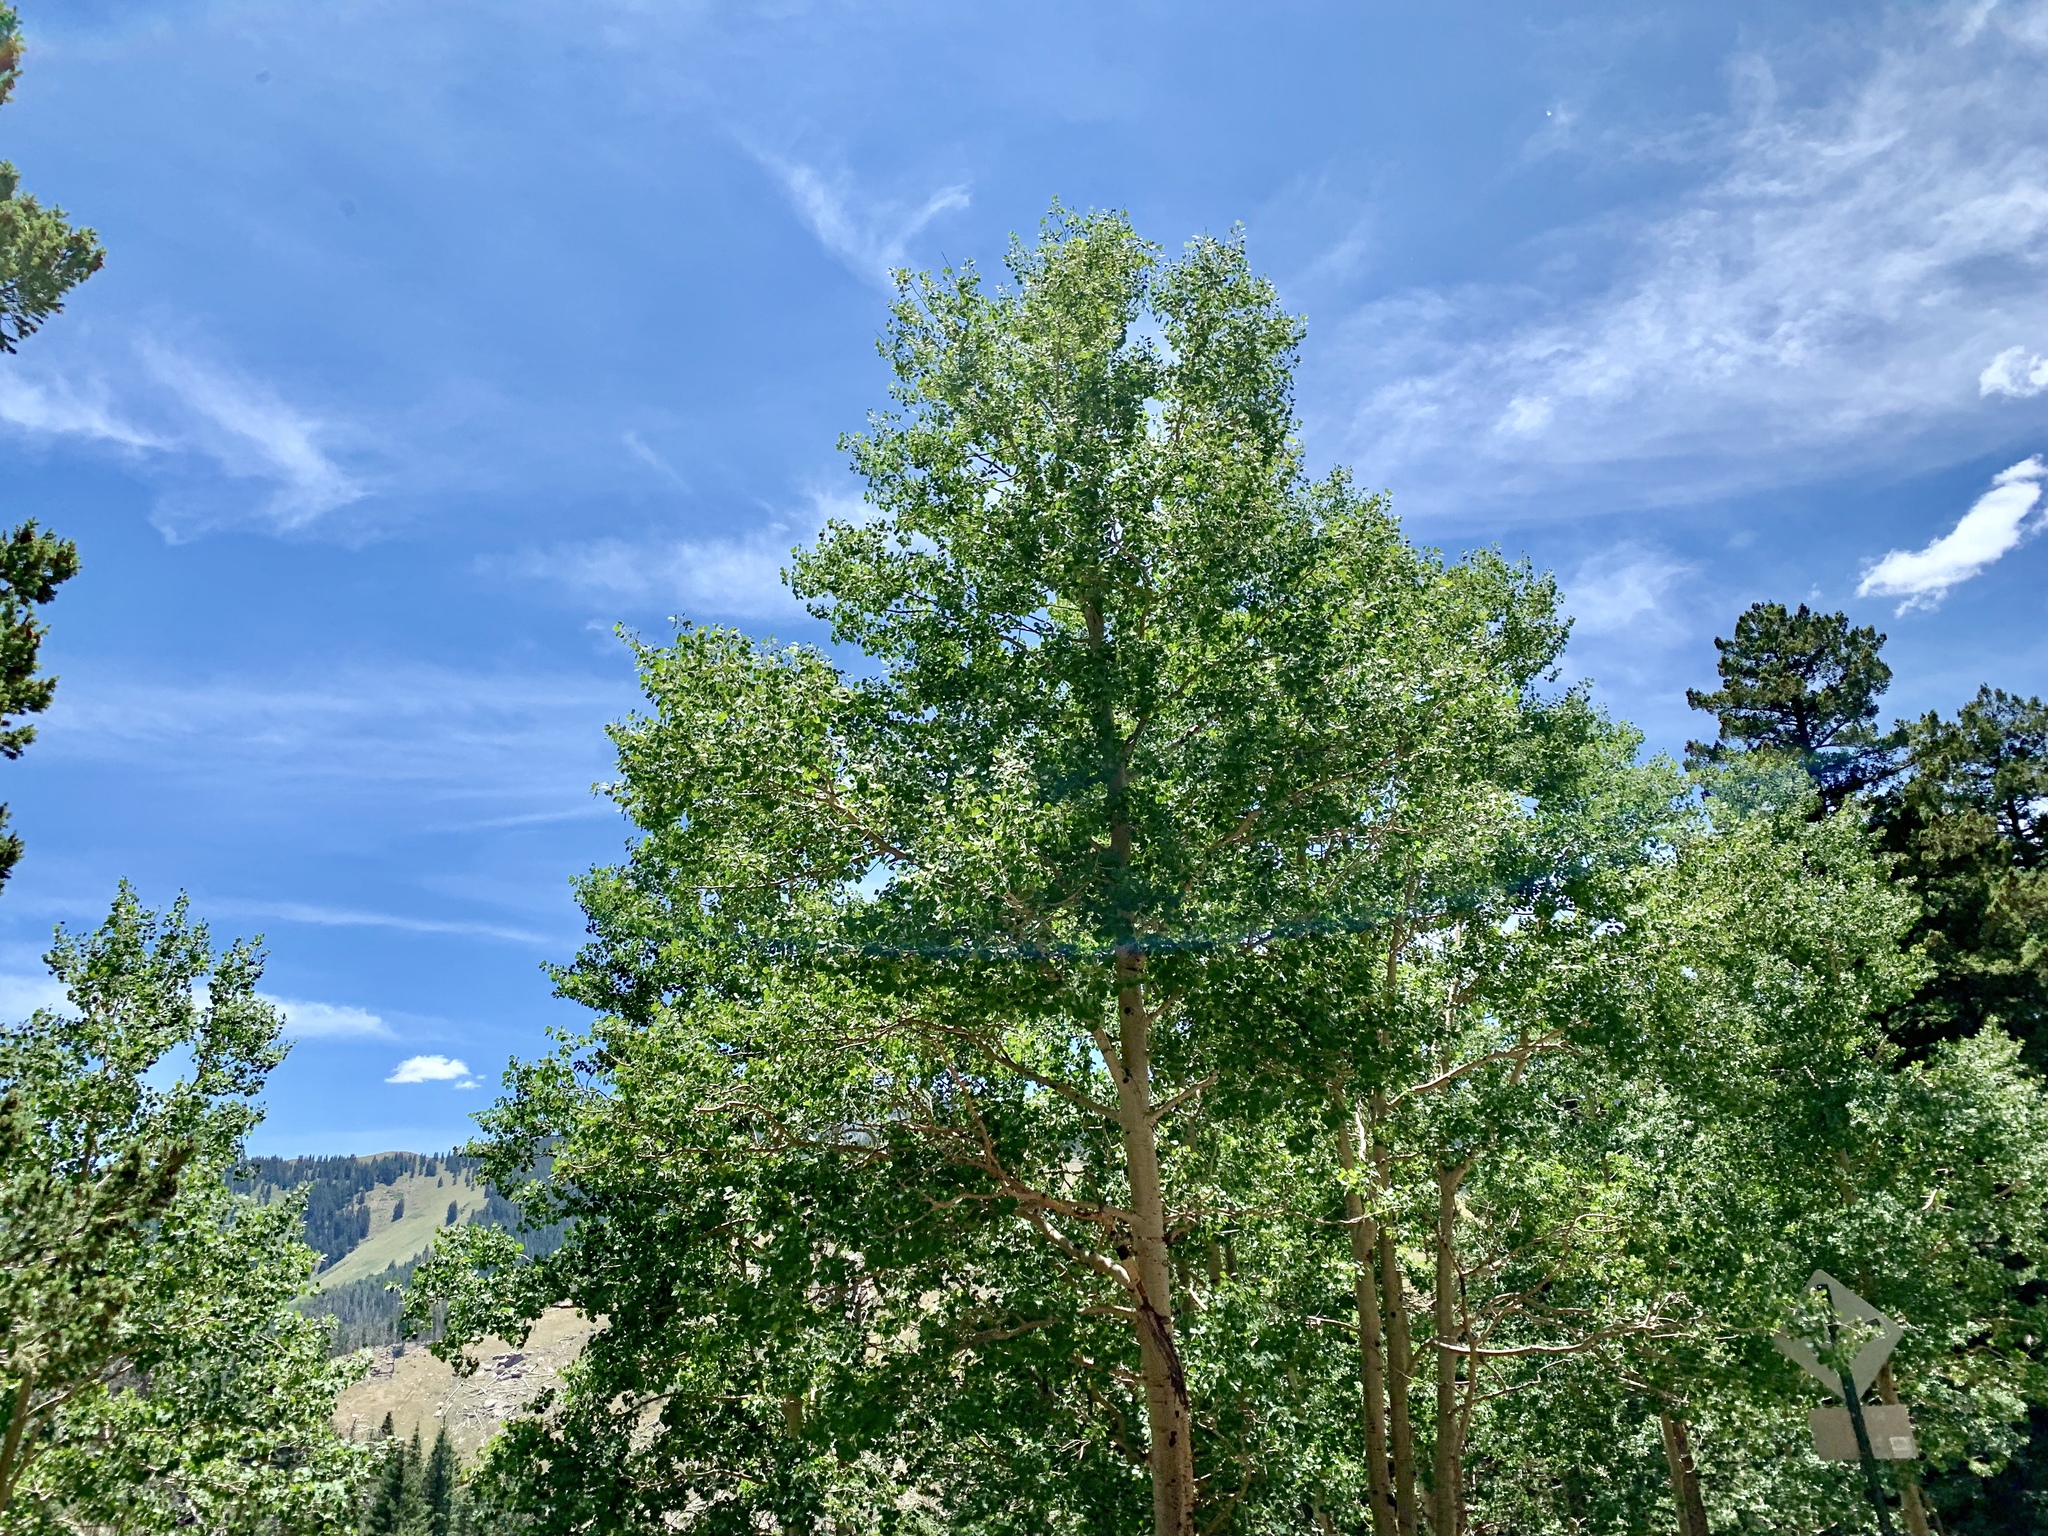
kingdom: Plantae
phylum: Tracheophyta
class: Magnoliopsida
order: Malpighiales
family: Salicaceae
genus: Populus
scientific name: Populus tremuloides
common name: Quaking aspen
